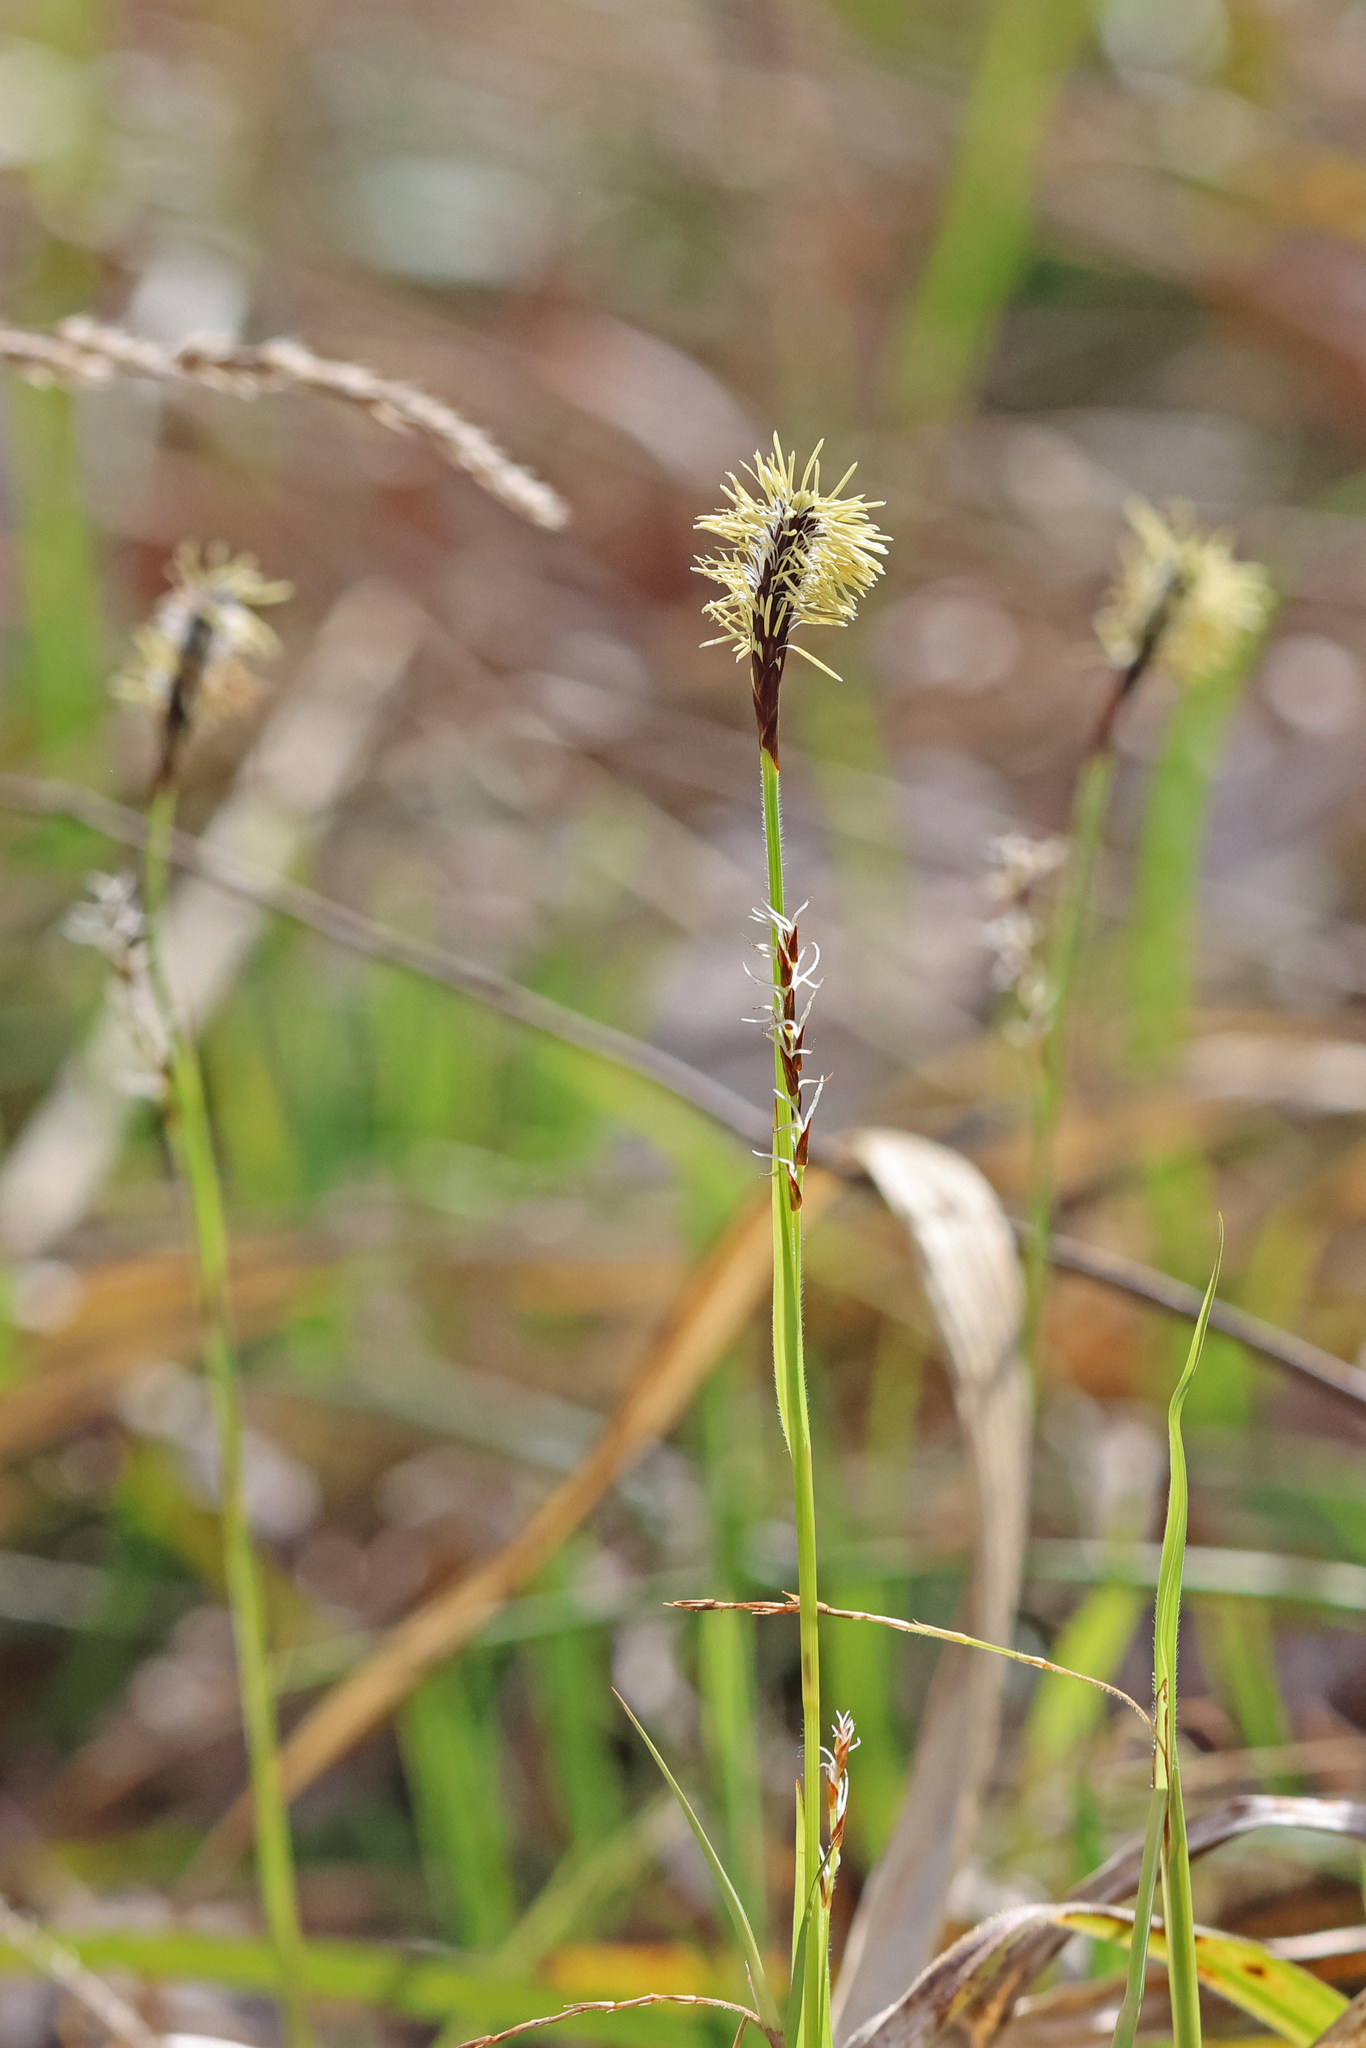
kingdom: Plantae
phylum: Tracheophyta
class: Liliopsida
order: Poales
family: Cyperaceae
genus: Carex
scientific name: Carex pilosa
